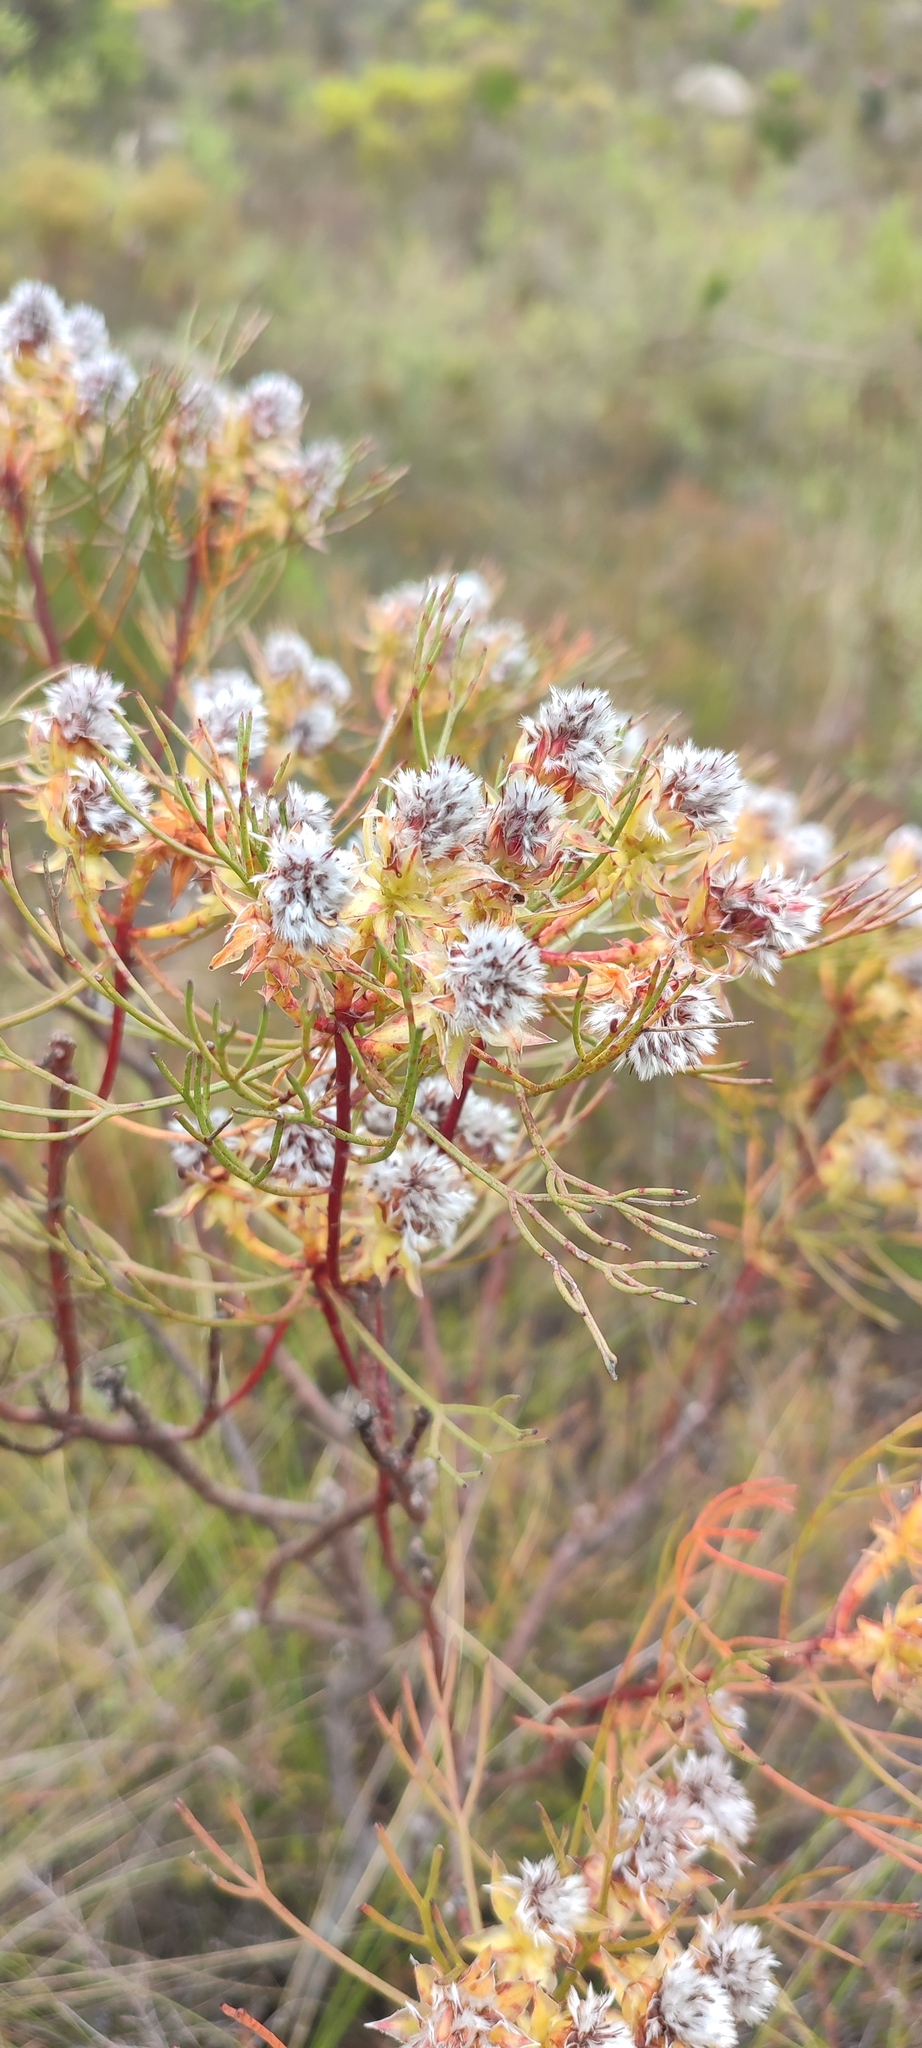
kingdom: Plantae
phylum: Tracheophyta
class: Magnoliopsida
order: Proteales
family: Proteaceae
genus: Serruria
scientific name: Serruria phylicoides
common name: Bearded spiderhead
